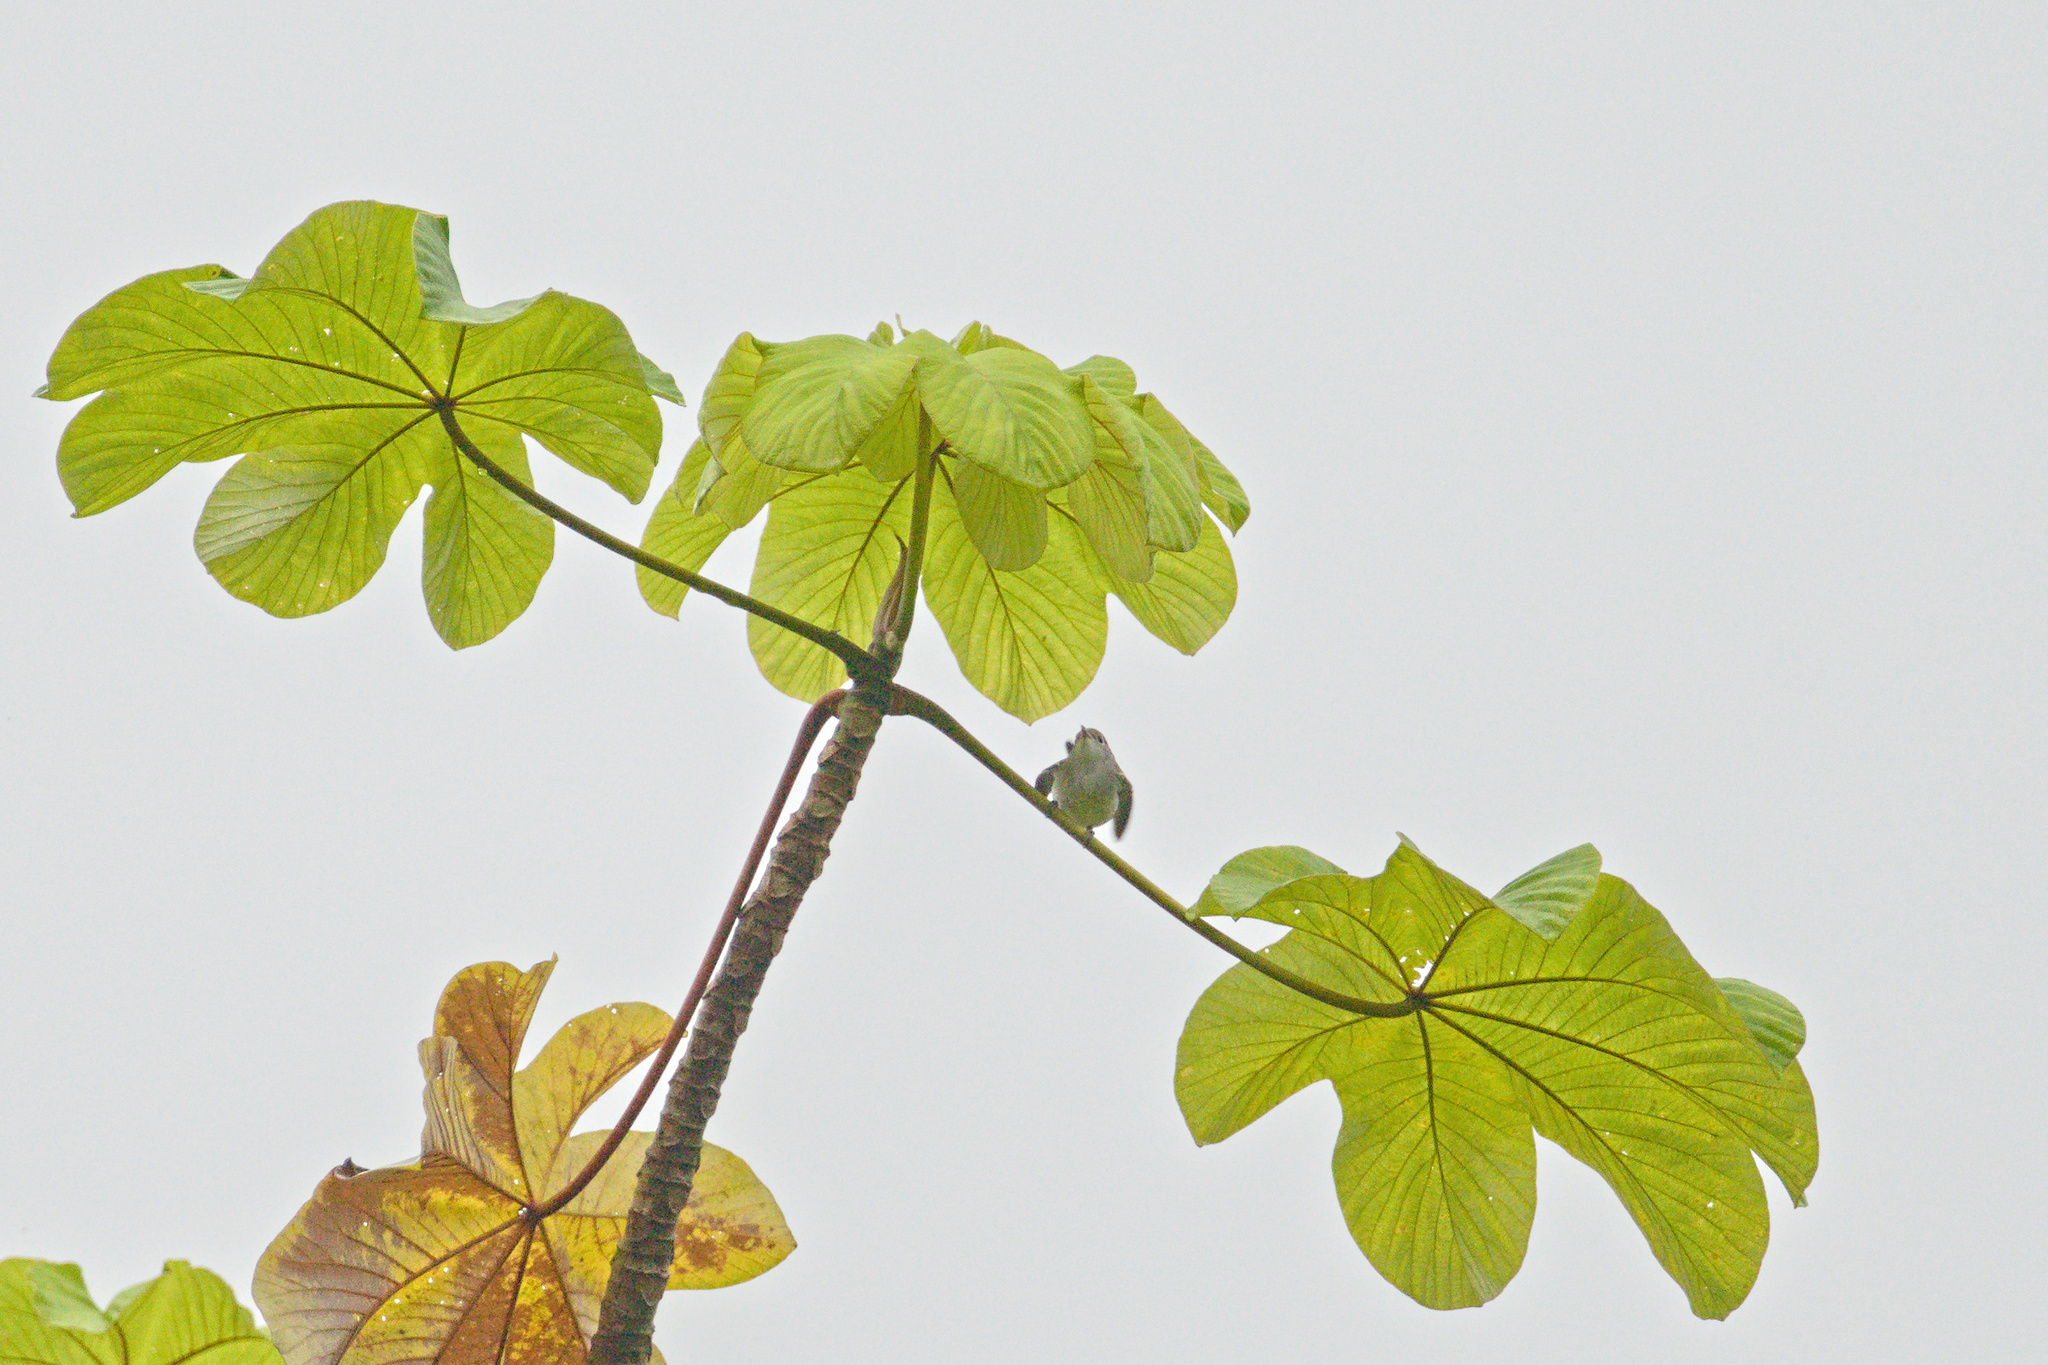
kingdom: Animalia
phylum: Chordata
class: Aves
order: Passeriformes
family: Parulidae
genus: Setophaga
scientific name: Setophaga pensylvanica
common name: Chestnut-sided warbler
